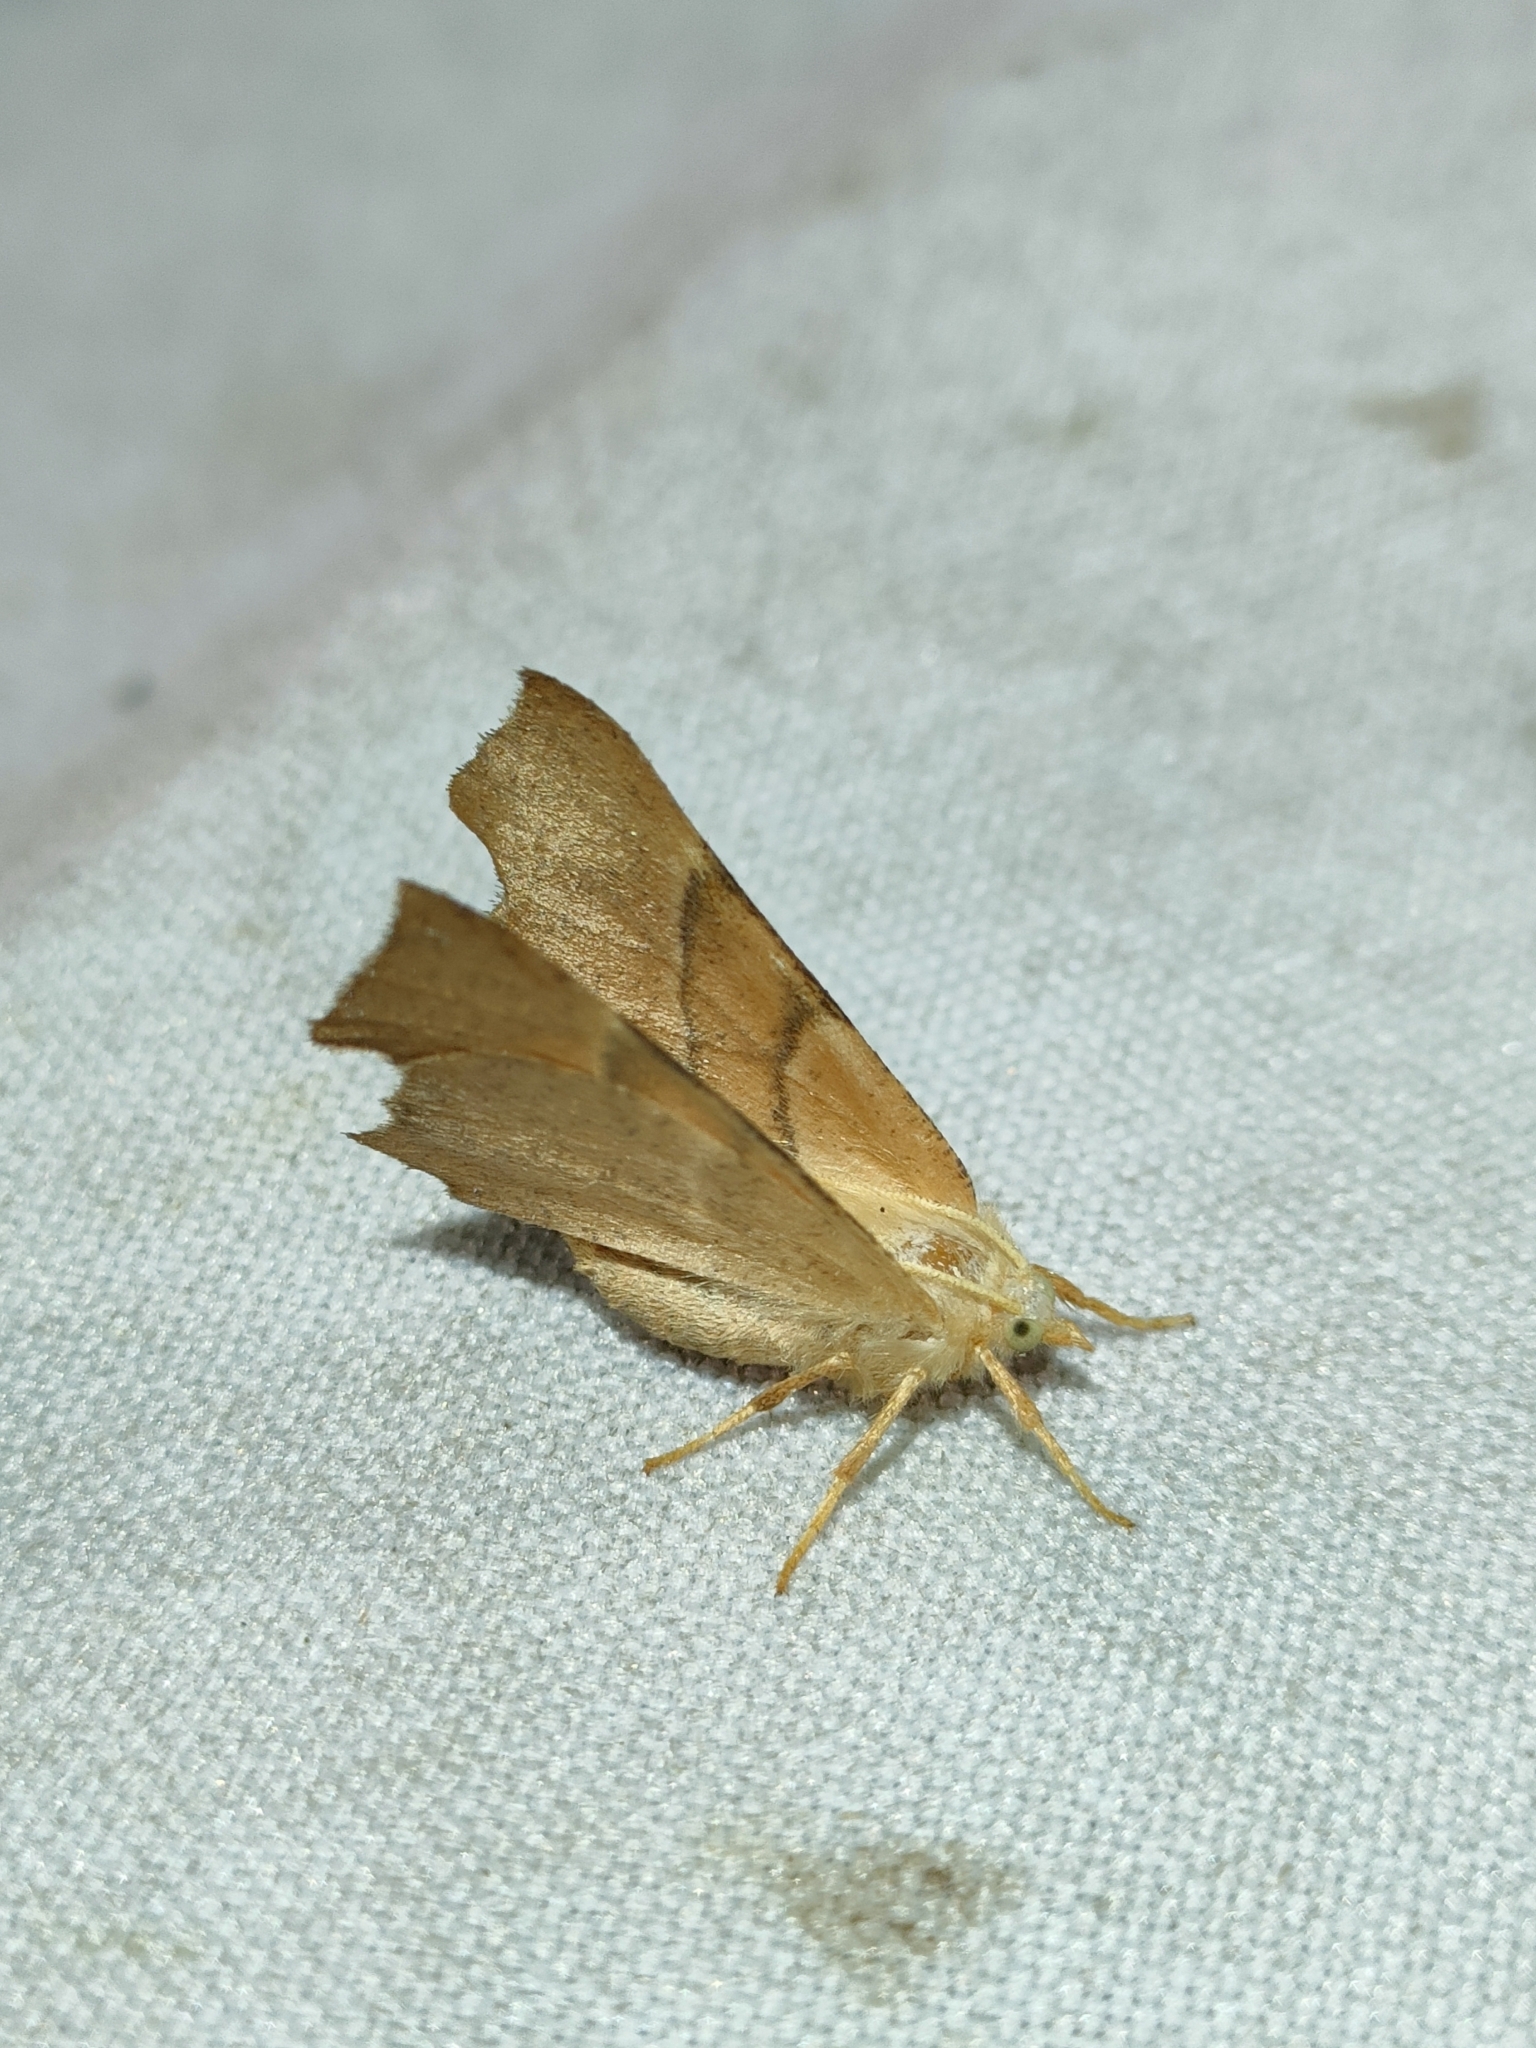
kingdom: Animalia
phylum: Arthropoda
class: Insecta
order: Lepidoptera
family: Geometridae
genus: Ennomos
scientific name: Ennomos quercaria
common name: Clouded august thorn
